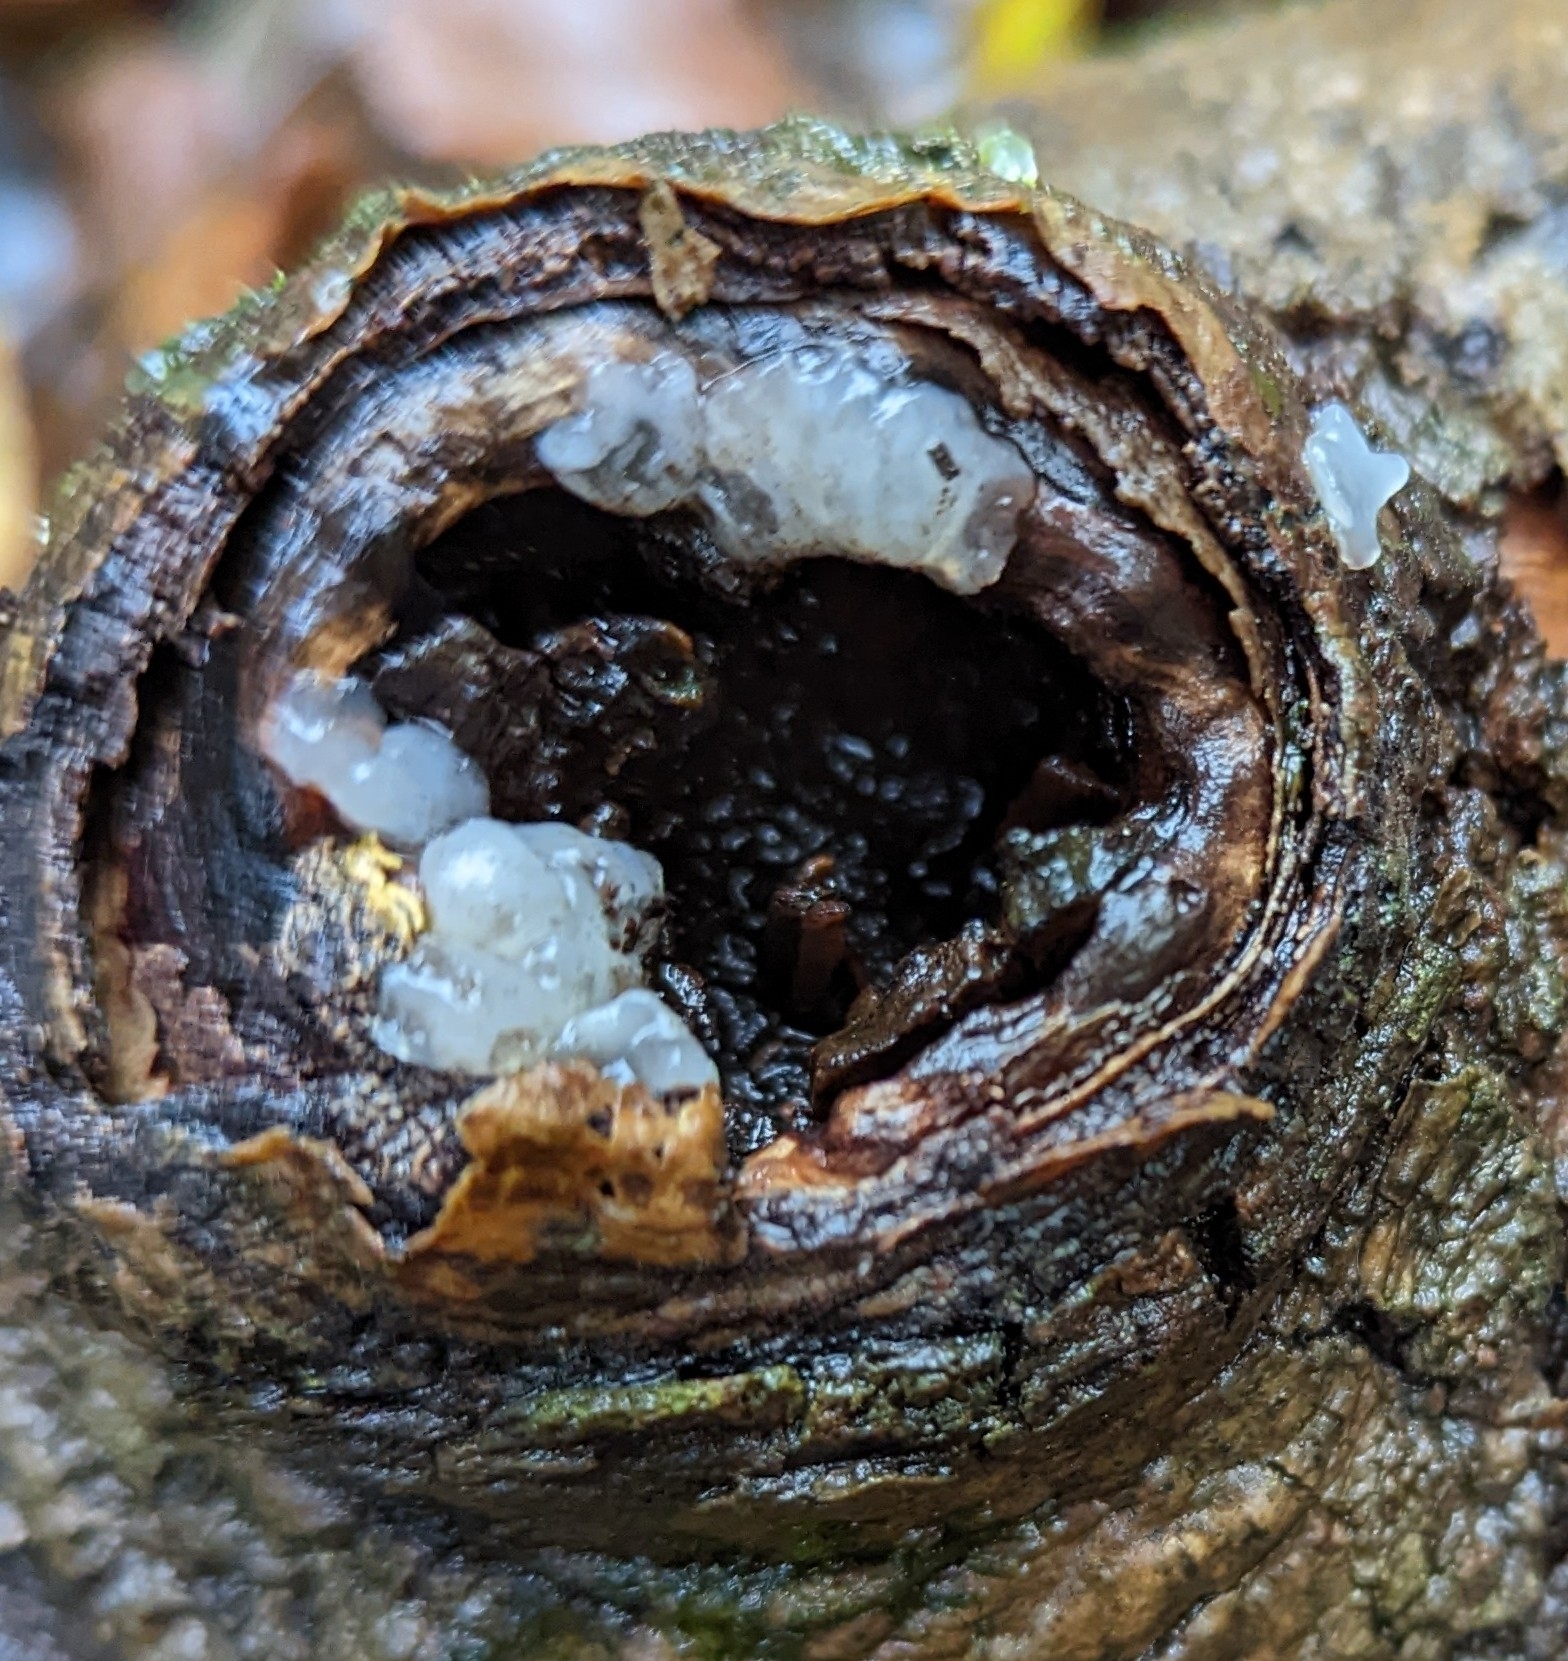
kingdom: Fungi
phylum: Basidiomycota
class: Agaricomycetes
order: Auriculariales
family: Hyaloriaceae
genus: Myxarium
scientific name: Myxarium nucleatum
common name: Crystal brain fungus
